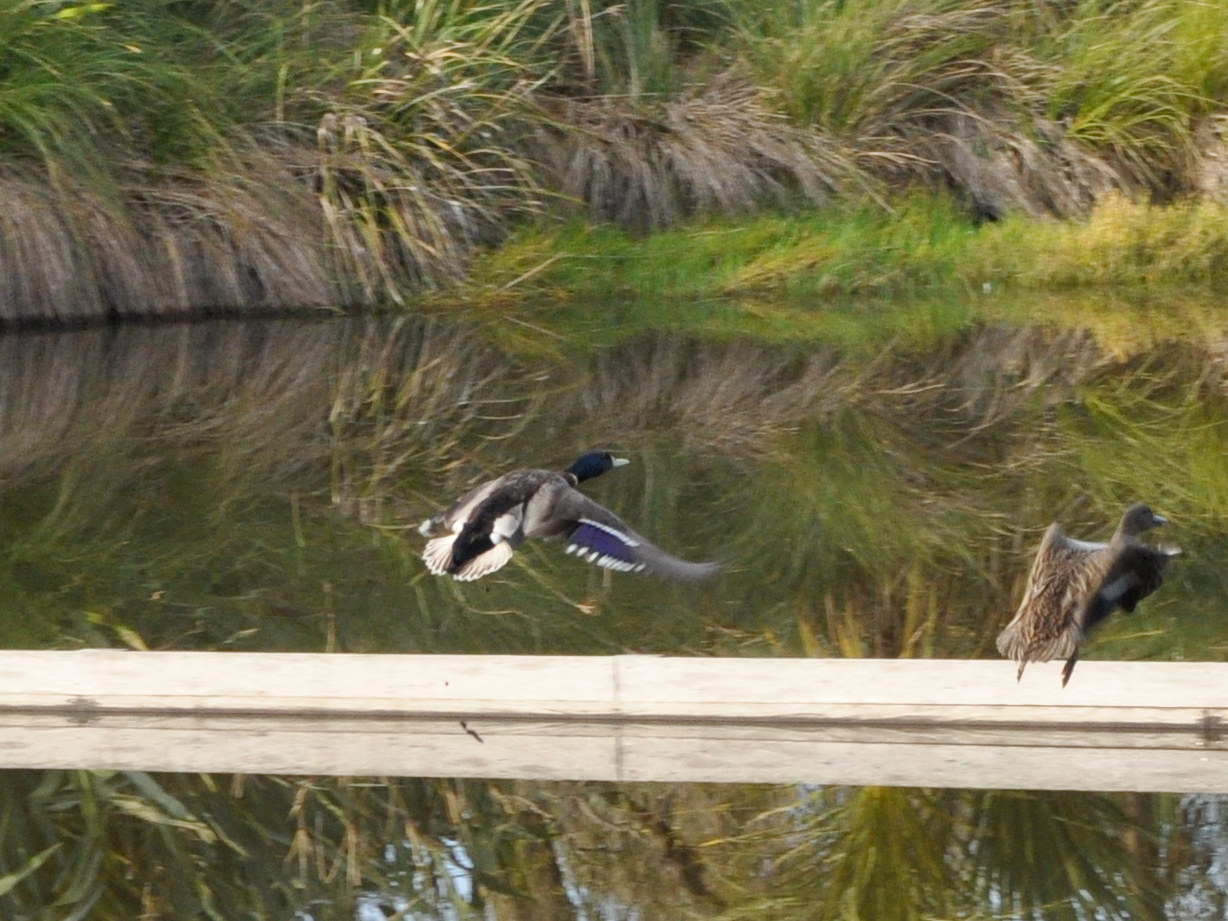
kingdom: Animalia
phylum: Chordata
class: Aves
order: Anseriformes
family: Anatidae
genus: Anas
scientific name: Anas platyrhynchos
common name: Mallard
